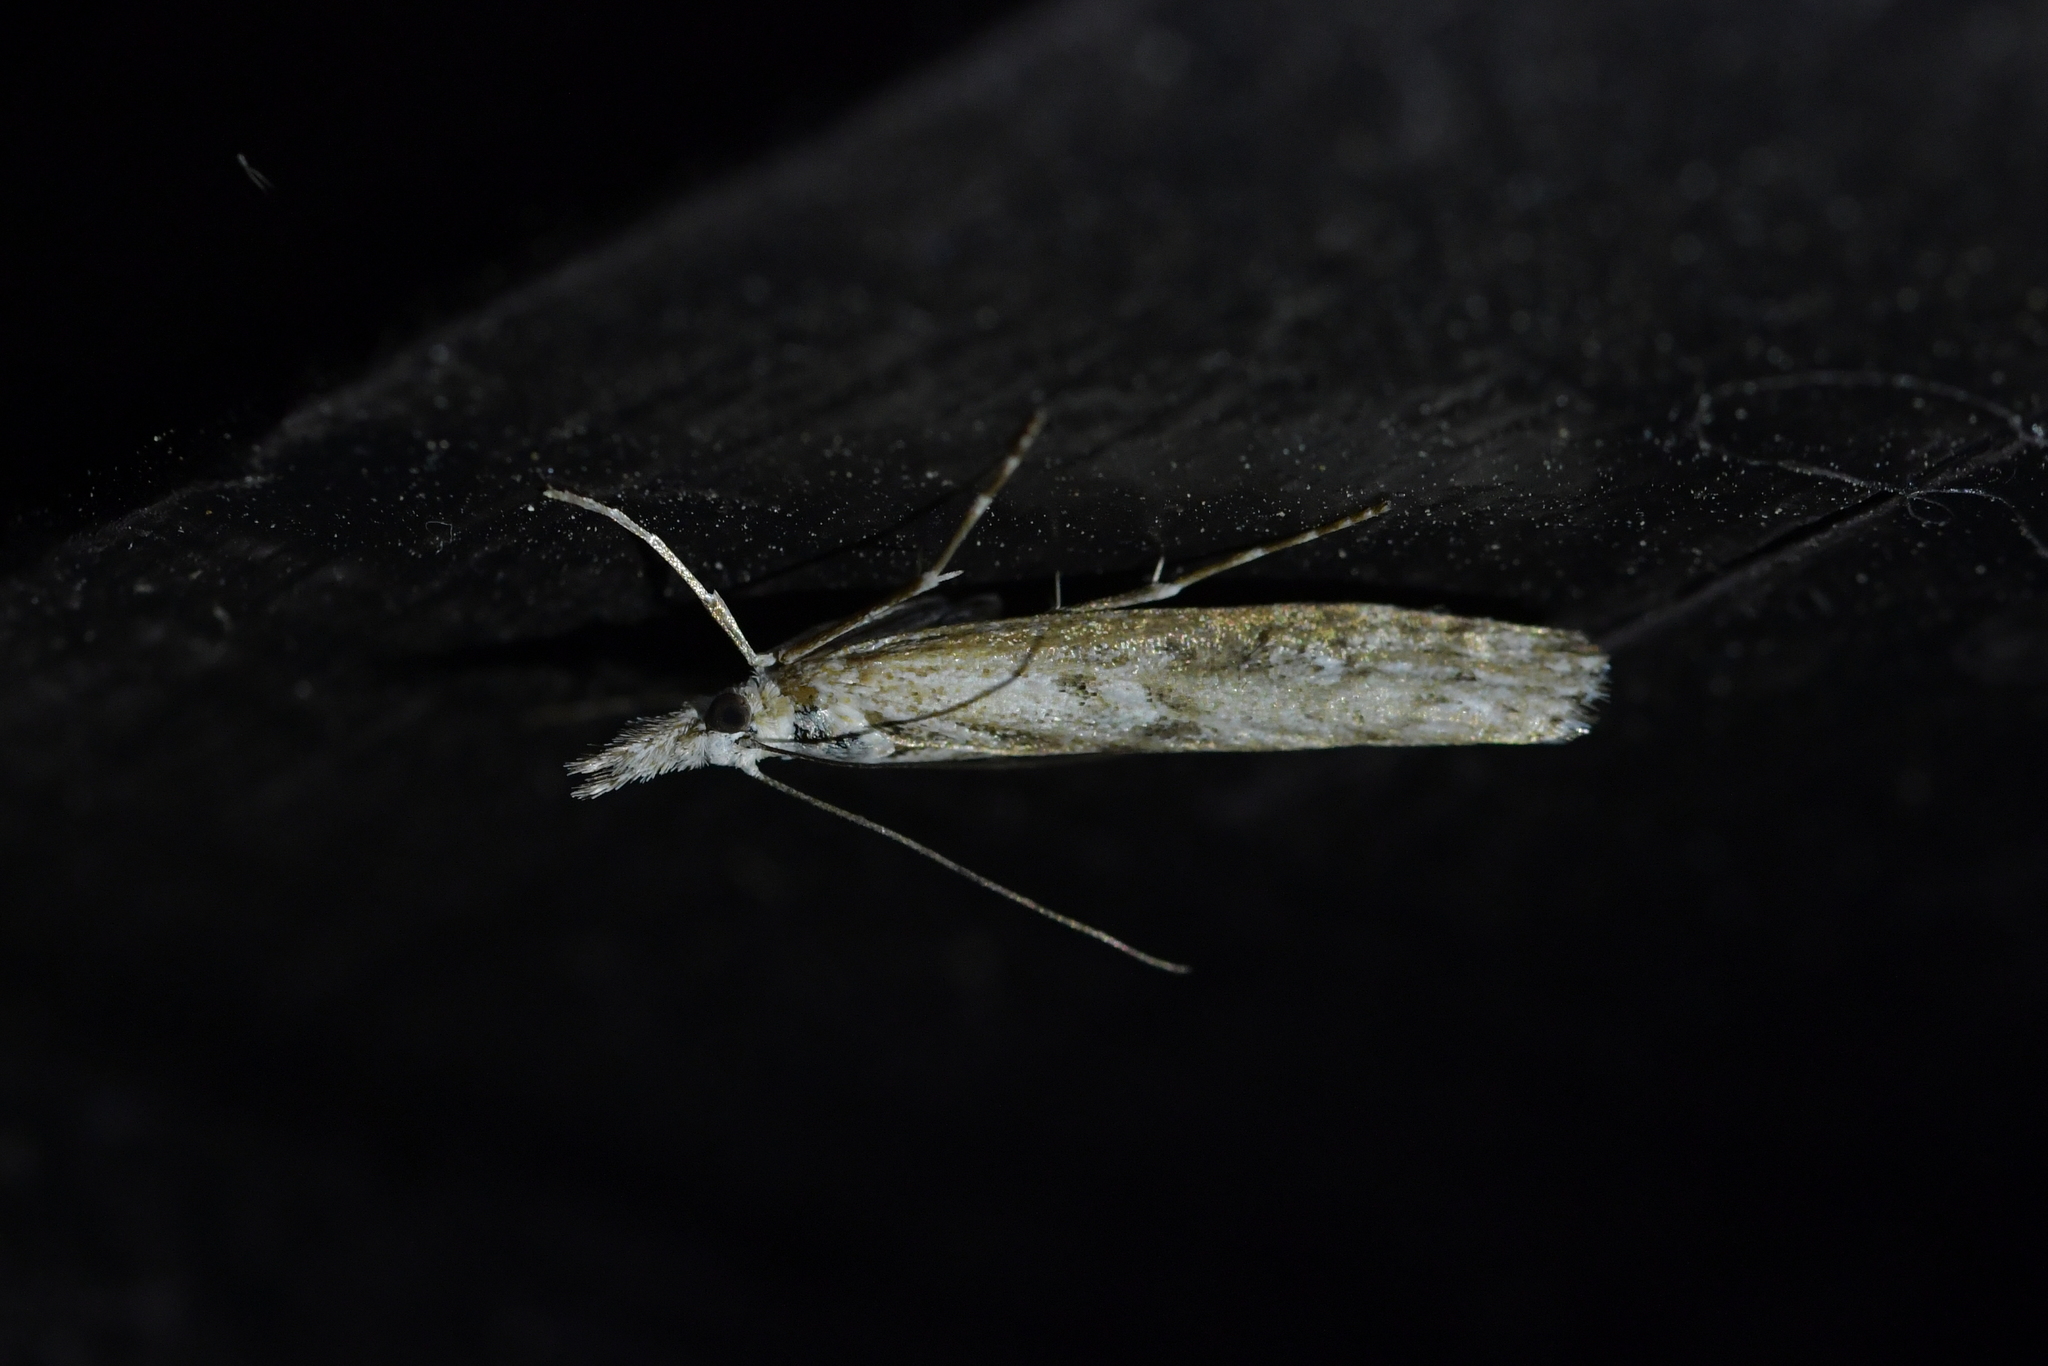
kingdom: Animalia
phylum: Arthropoda
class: Insecta
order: Lepidoptera
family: Crambidae
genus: Orocrambus
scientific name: Orocrambus cyclopicus
